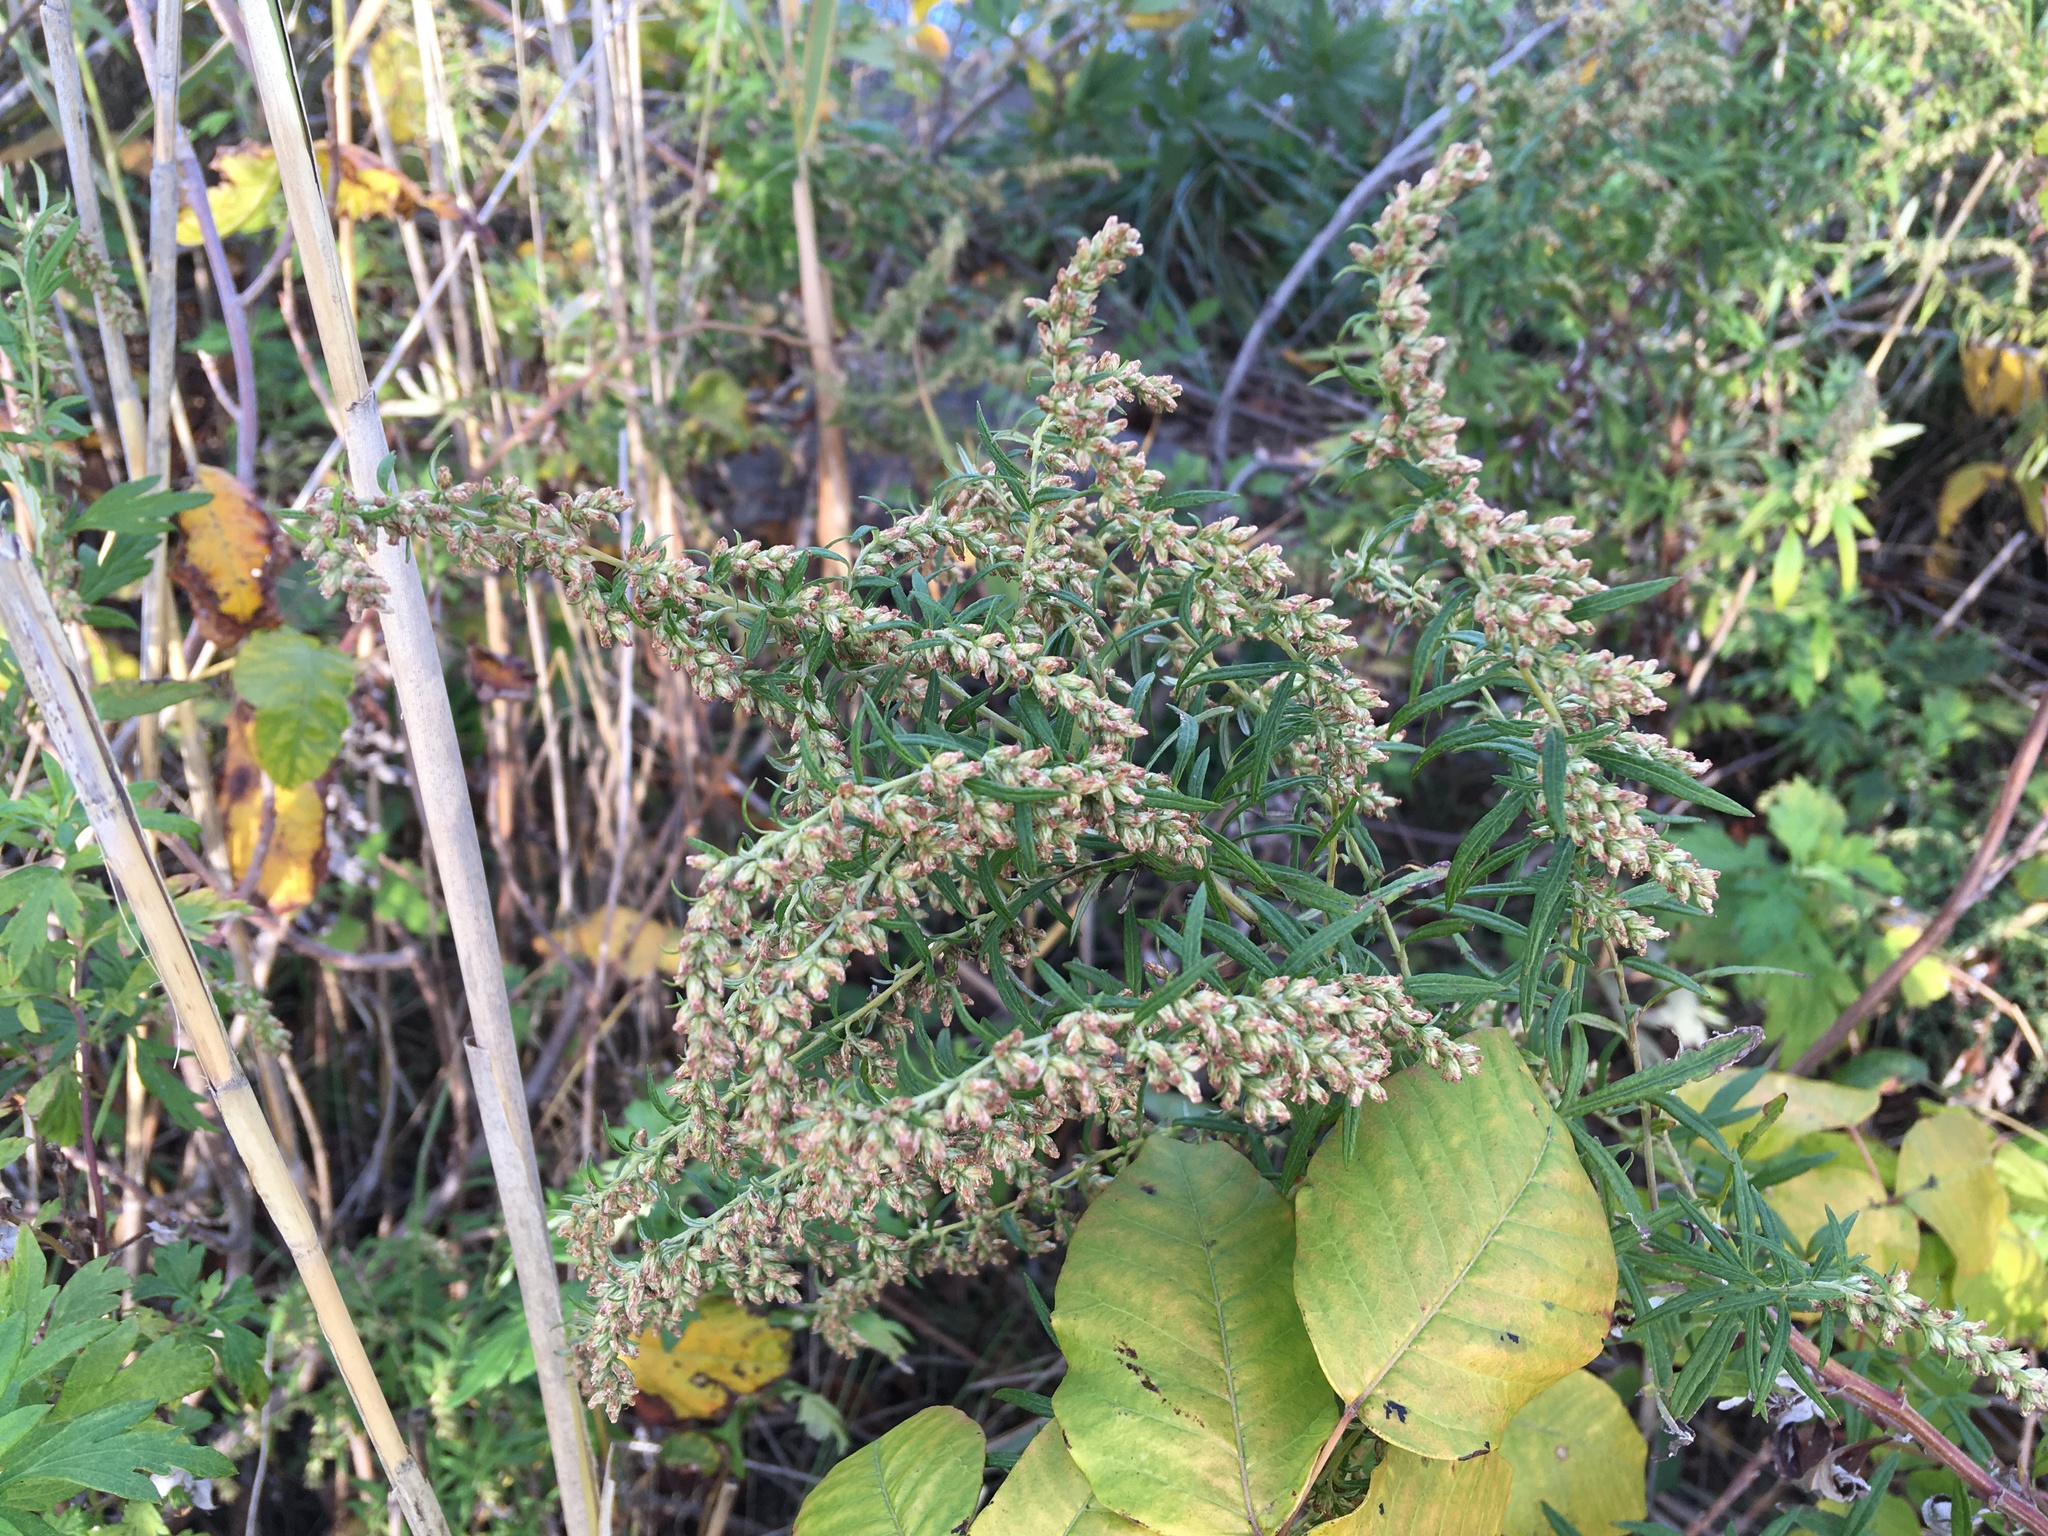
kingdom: Plantae
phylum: Tracheophyta
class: Magnoliopsida
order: Asterales
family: Asteraceae
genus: Artemisia
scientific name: Artemisia vulgaris
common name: Mugwort
